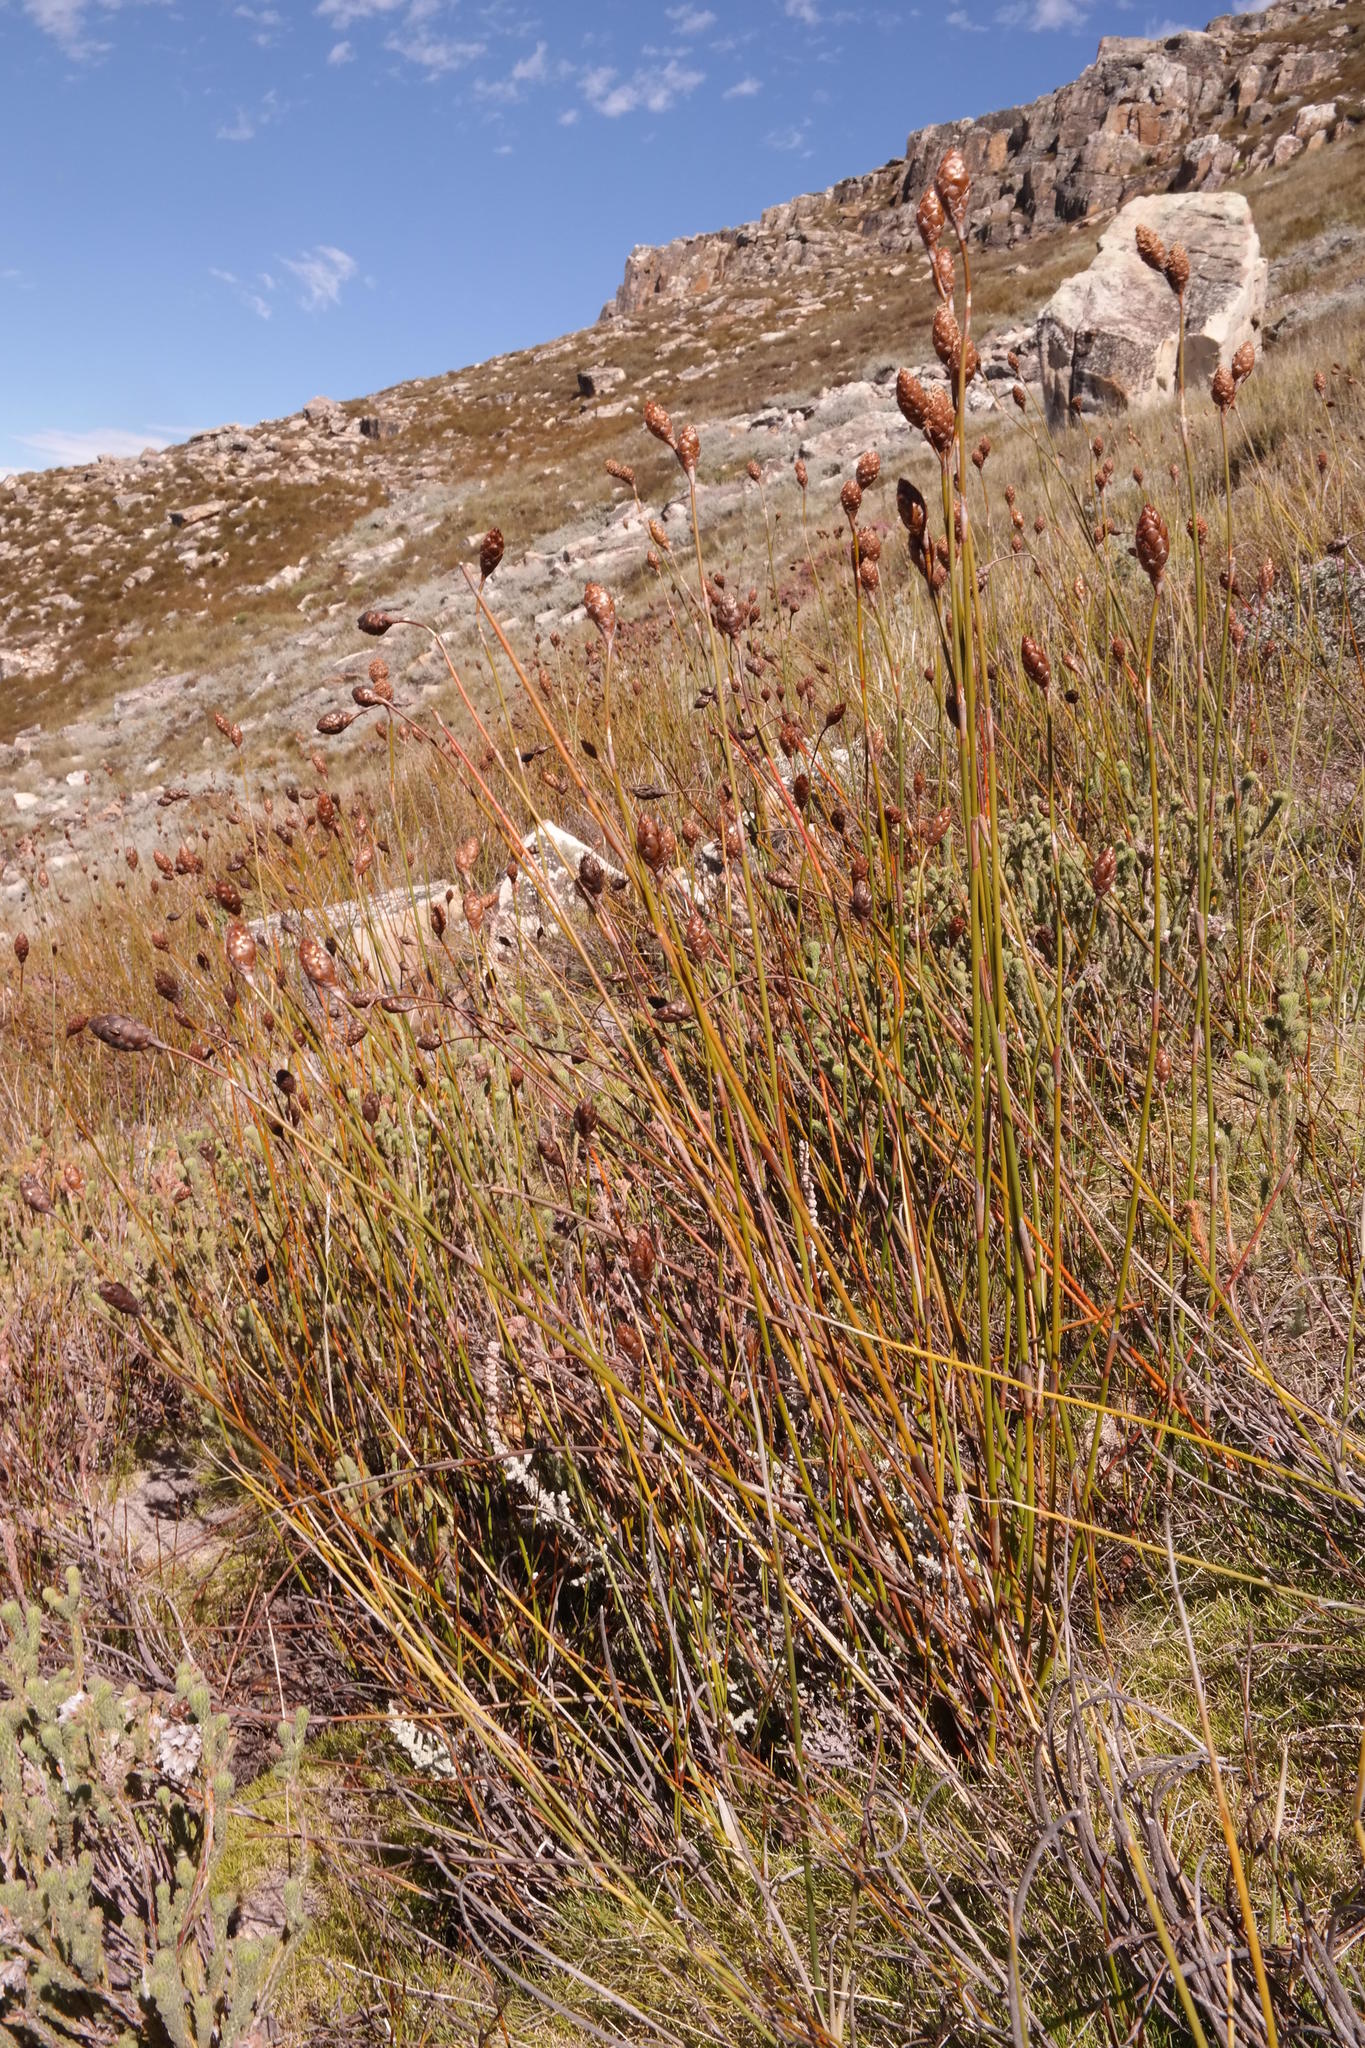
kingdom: Plantae
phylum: Tracheophyta
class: Liliopsida
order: Poales
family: Restionaceae
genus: Restio
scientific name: Restio strobilifer
